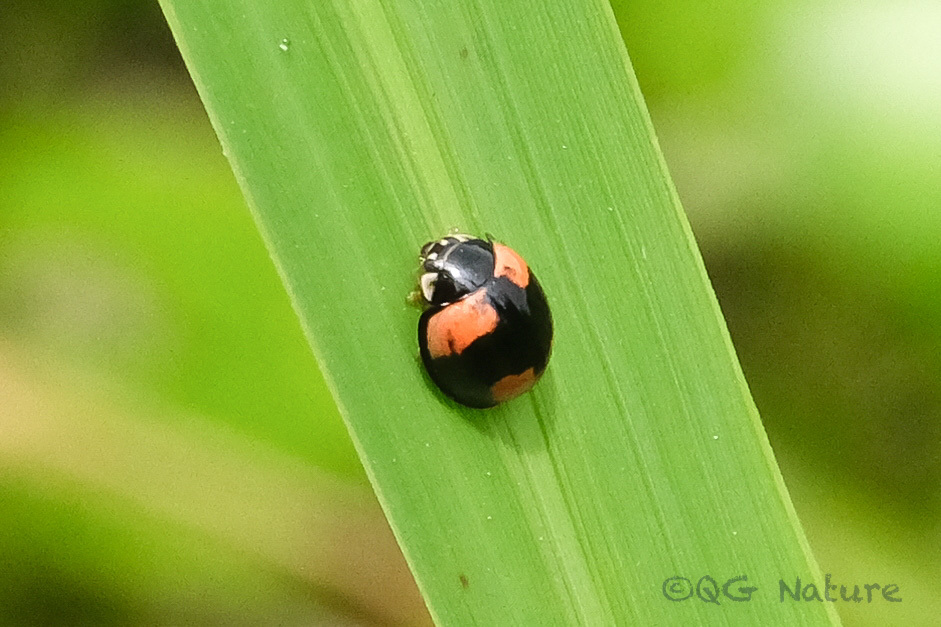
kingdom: Animalia
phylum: Arthropoda
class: Insecta
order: Coleoptera
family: Coccinellidae
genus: Cheilomenes
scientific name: Cheilomenes sexmaculata
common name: Ladybird beetle
